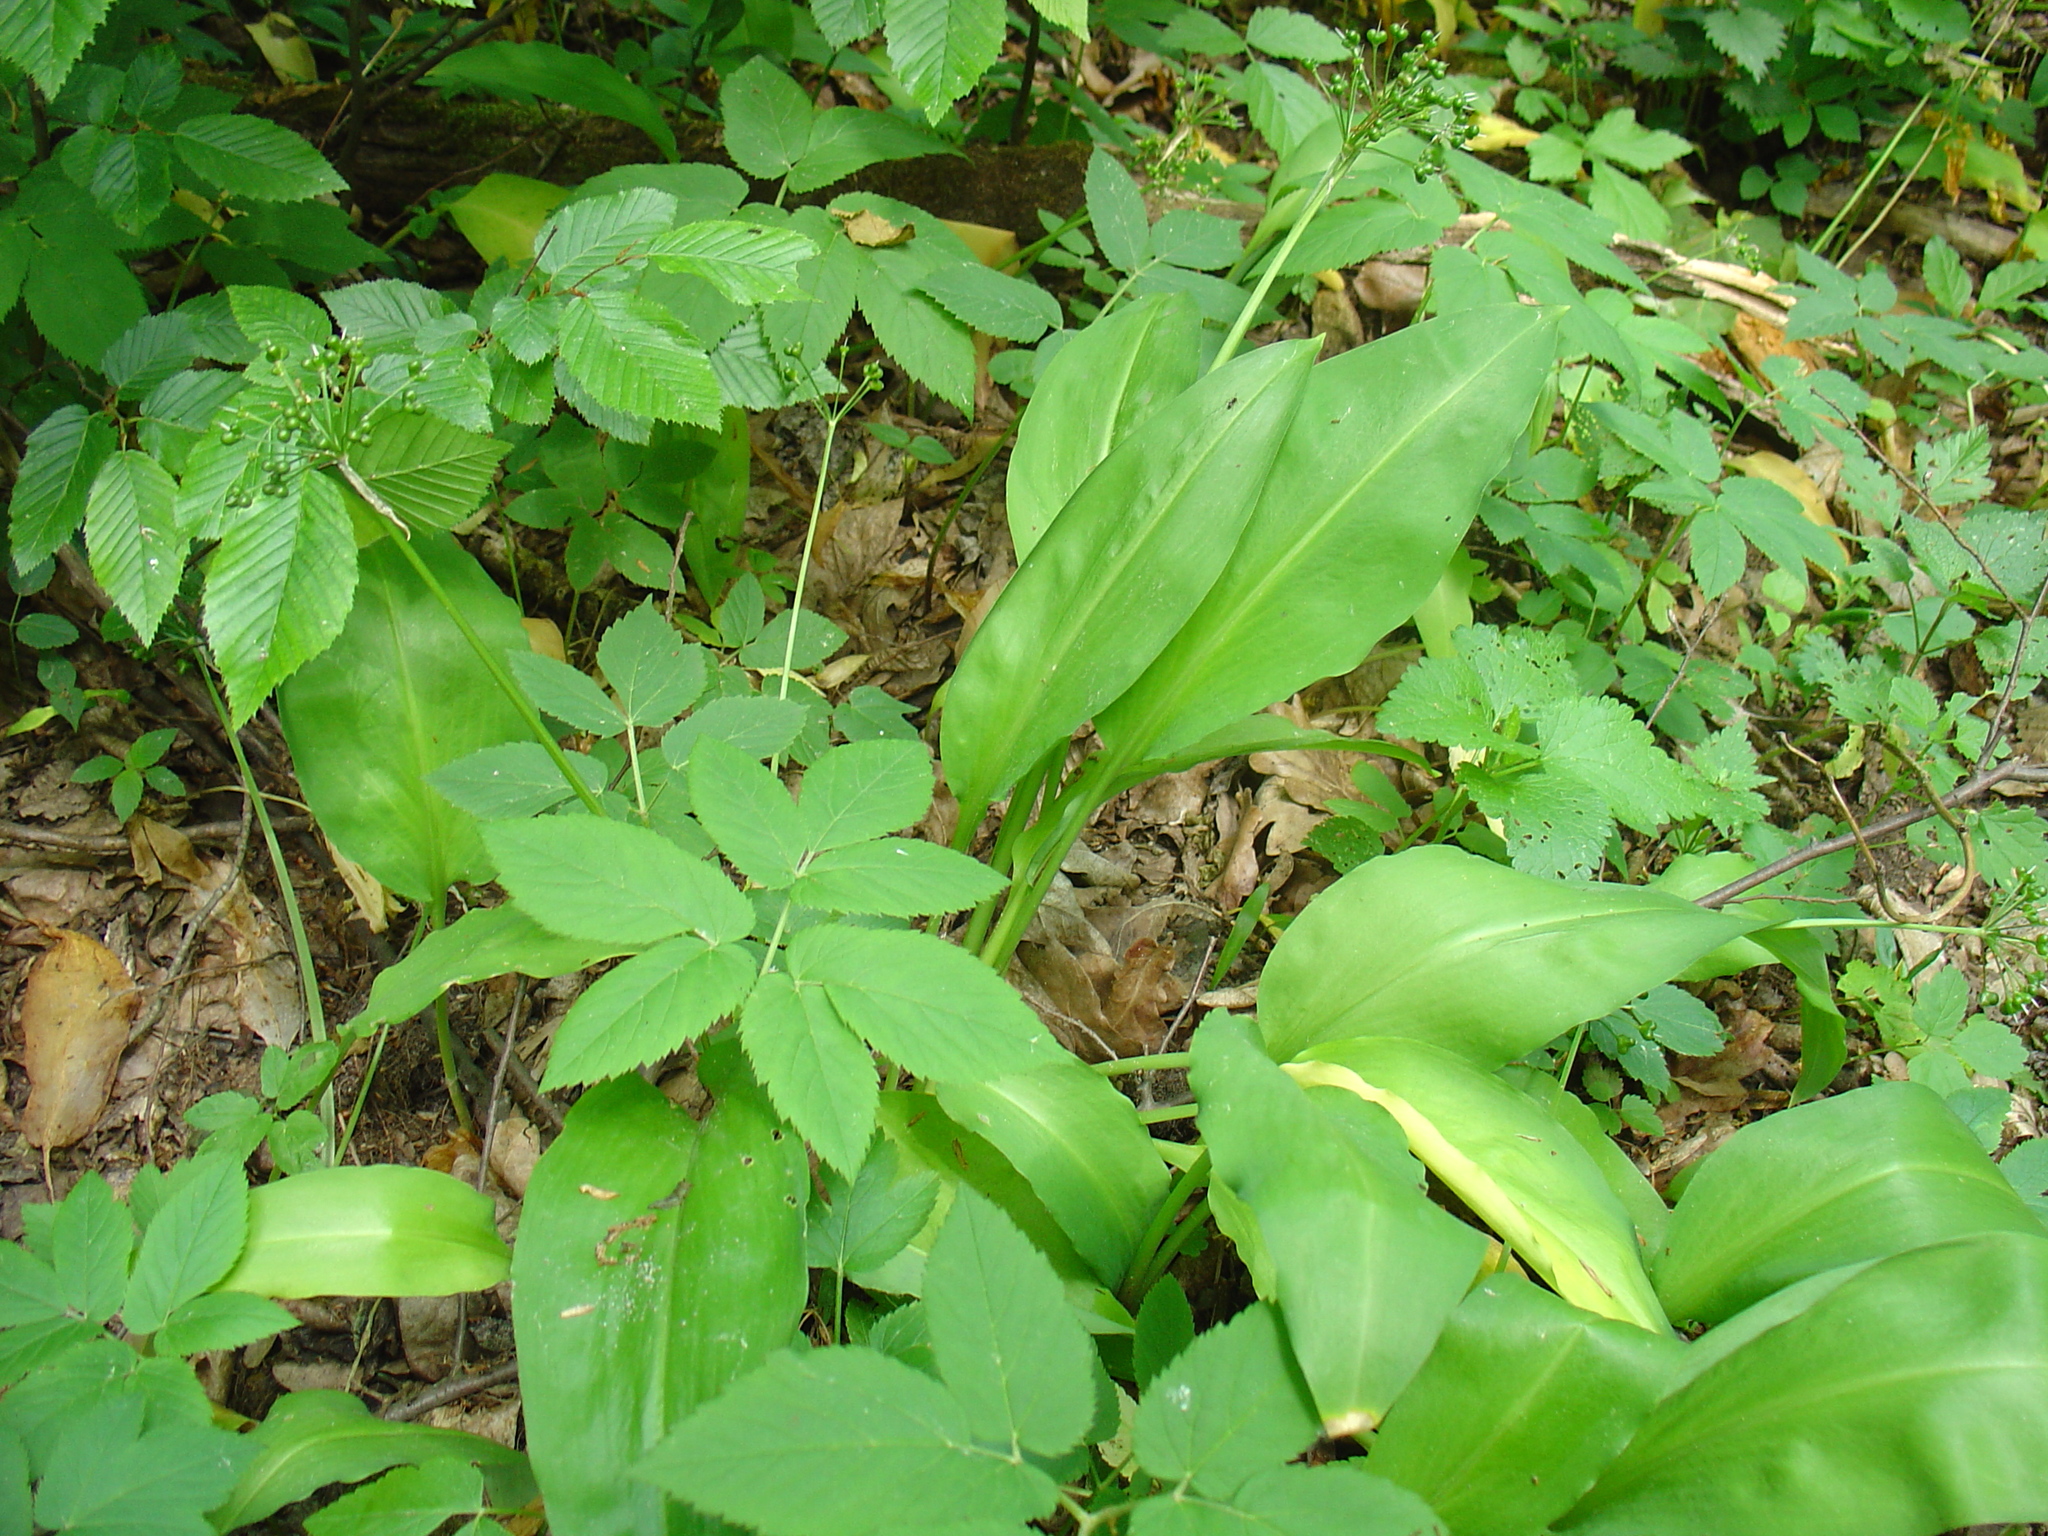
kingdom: Plantae
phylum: Tracheophyta
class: Liliopsida
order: Asparagales
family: Amaryllidaceae
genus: Allium
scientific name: Allium ursinum
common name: Ramsons
